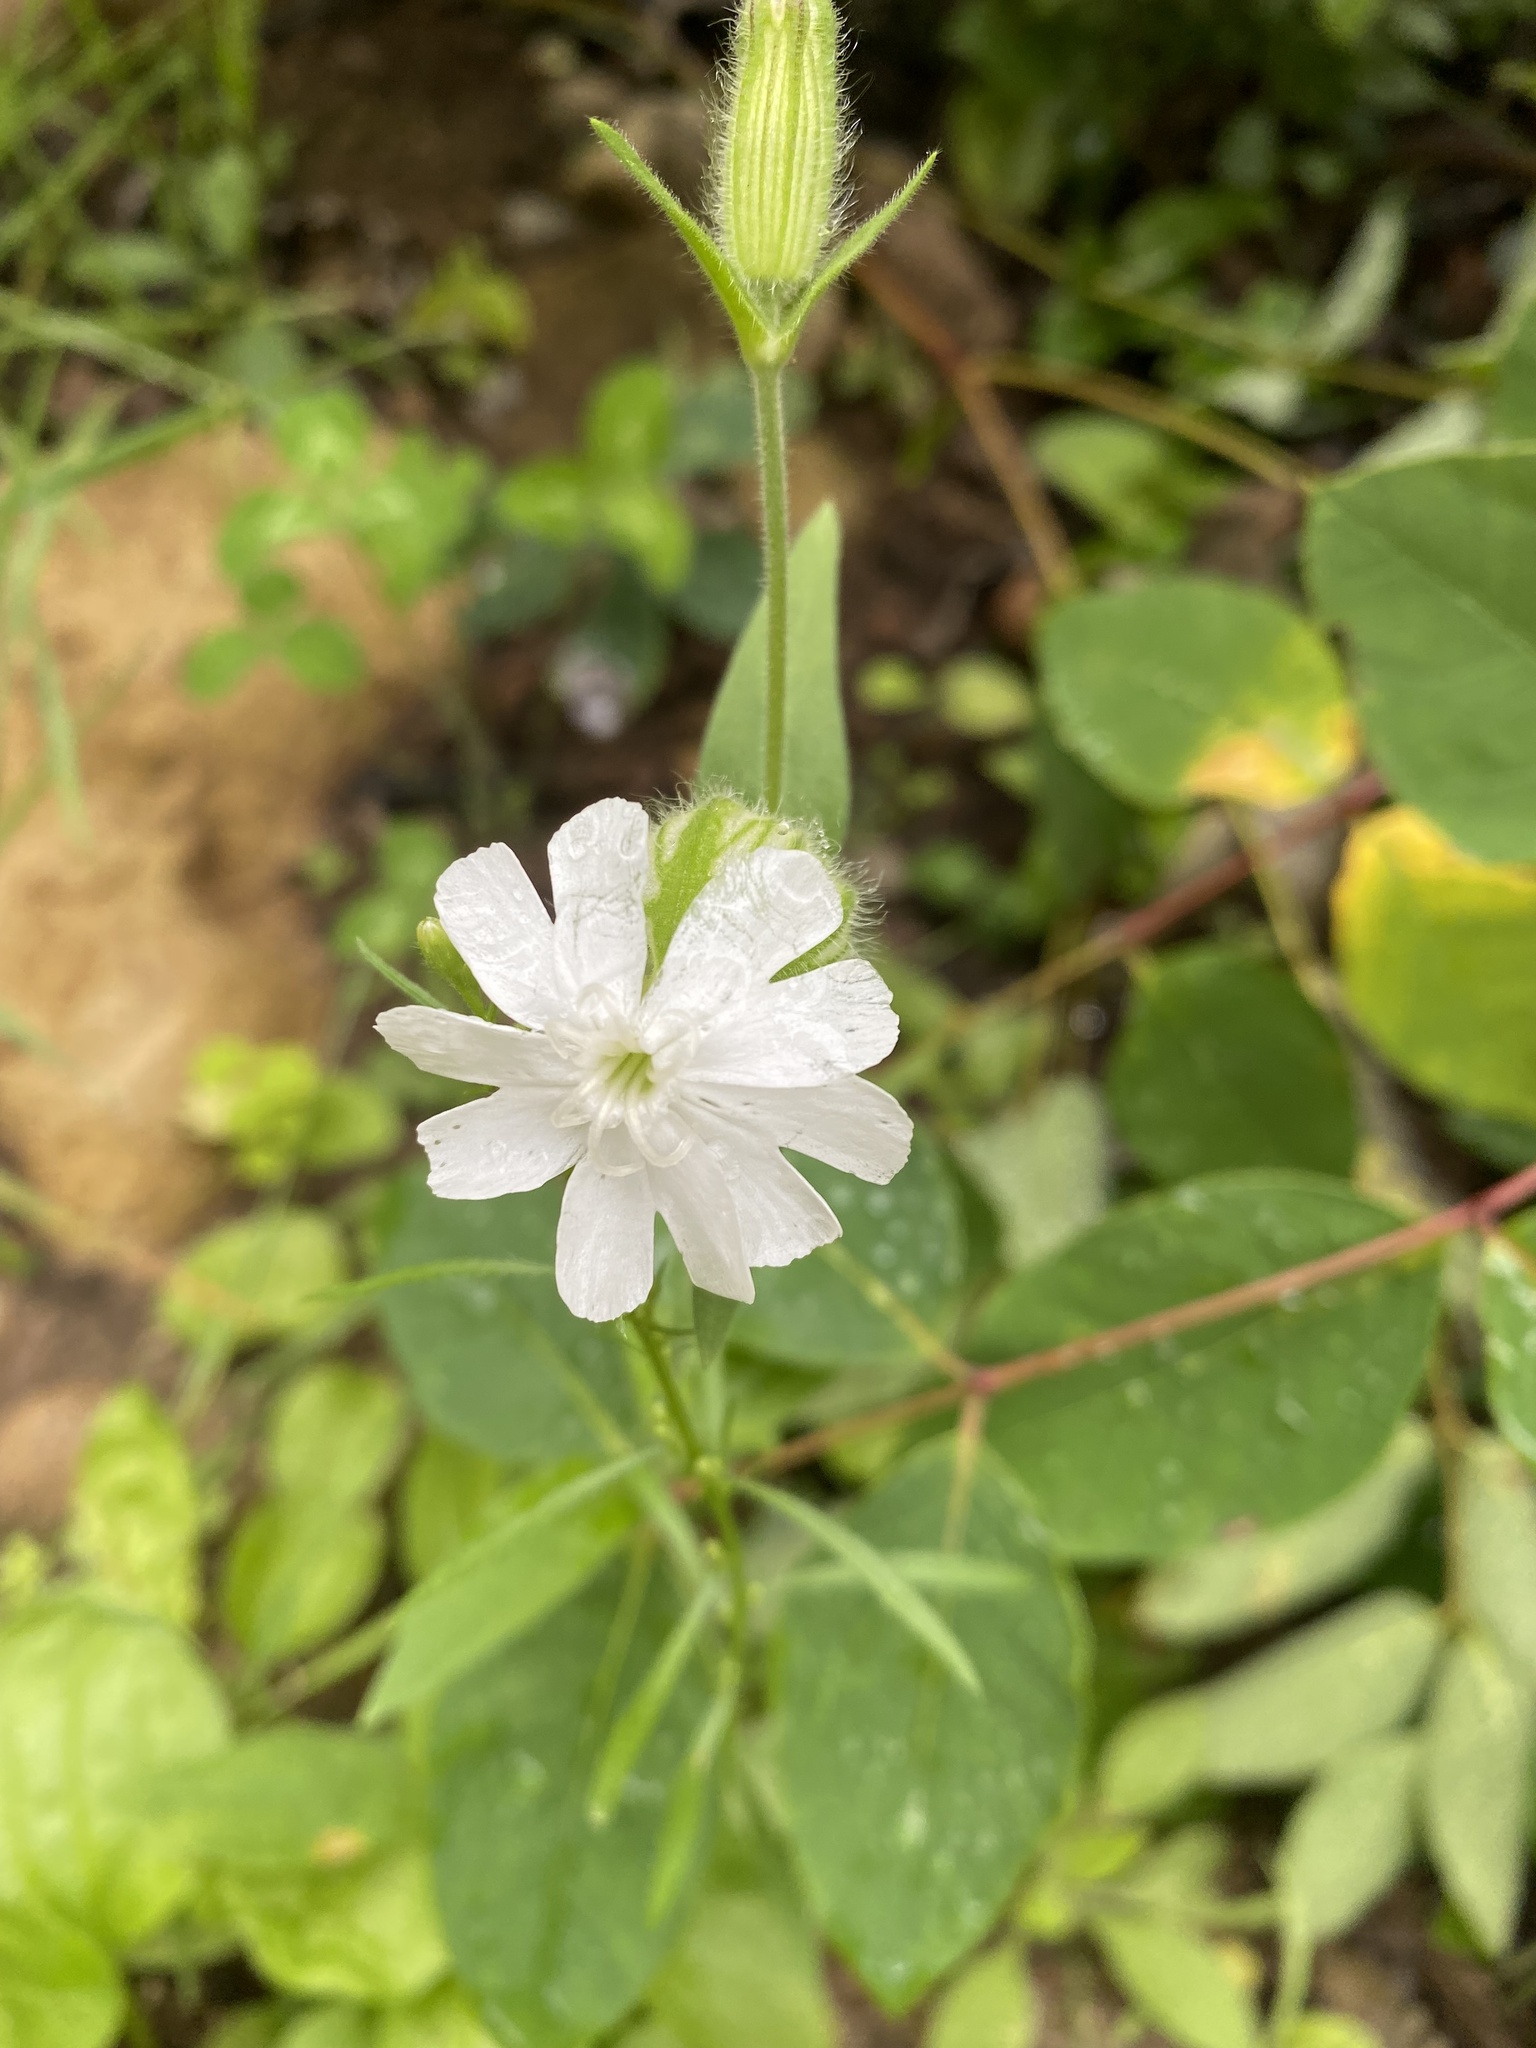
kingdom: Plantae
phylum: Tracheophyta
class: Magnoliopsida
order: Caryophyllales
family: Caryophyllaceae
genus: Silene
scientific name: Silene latifolia
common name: White campion
